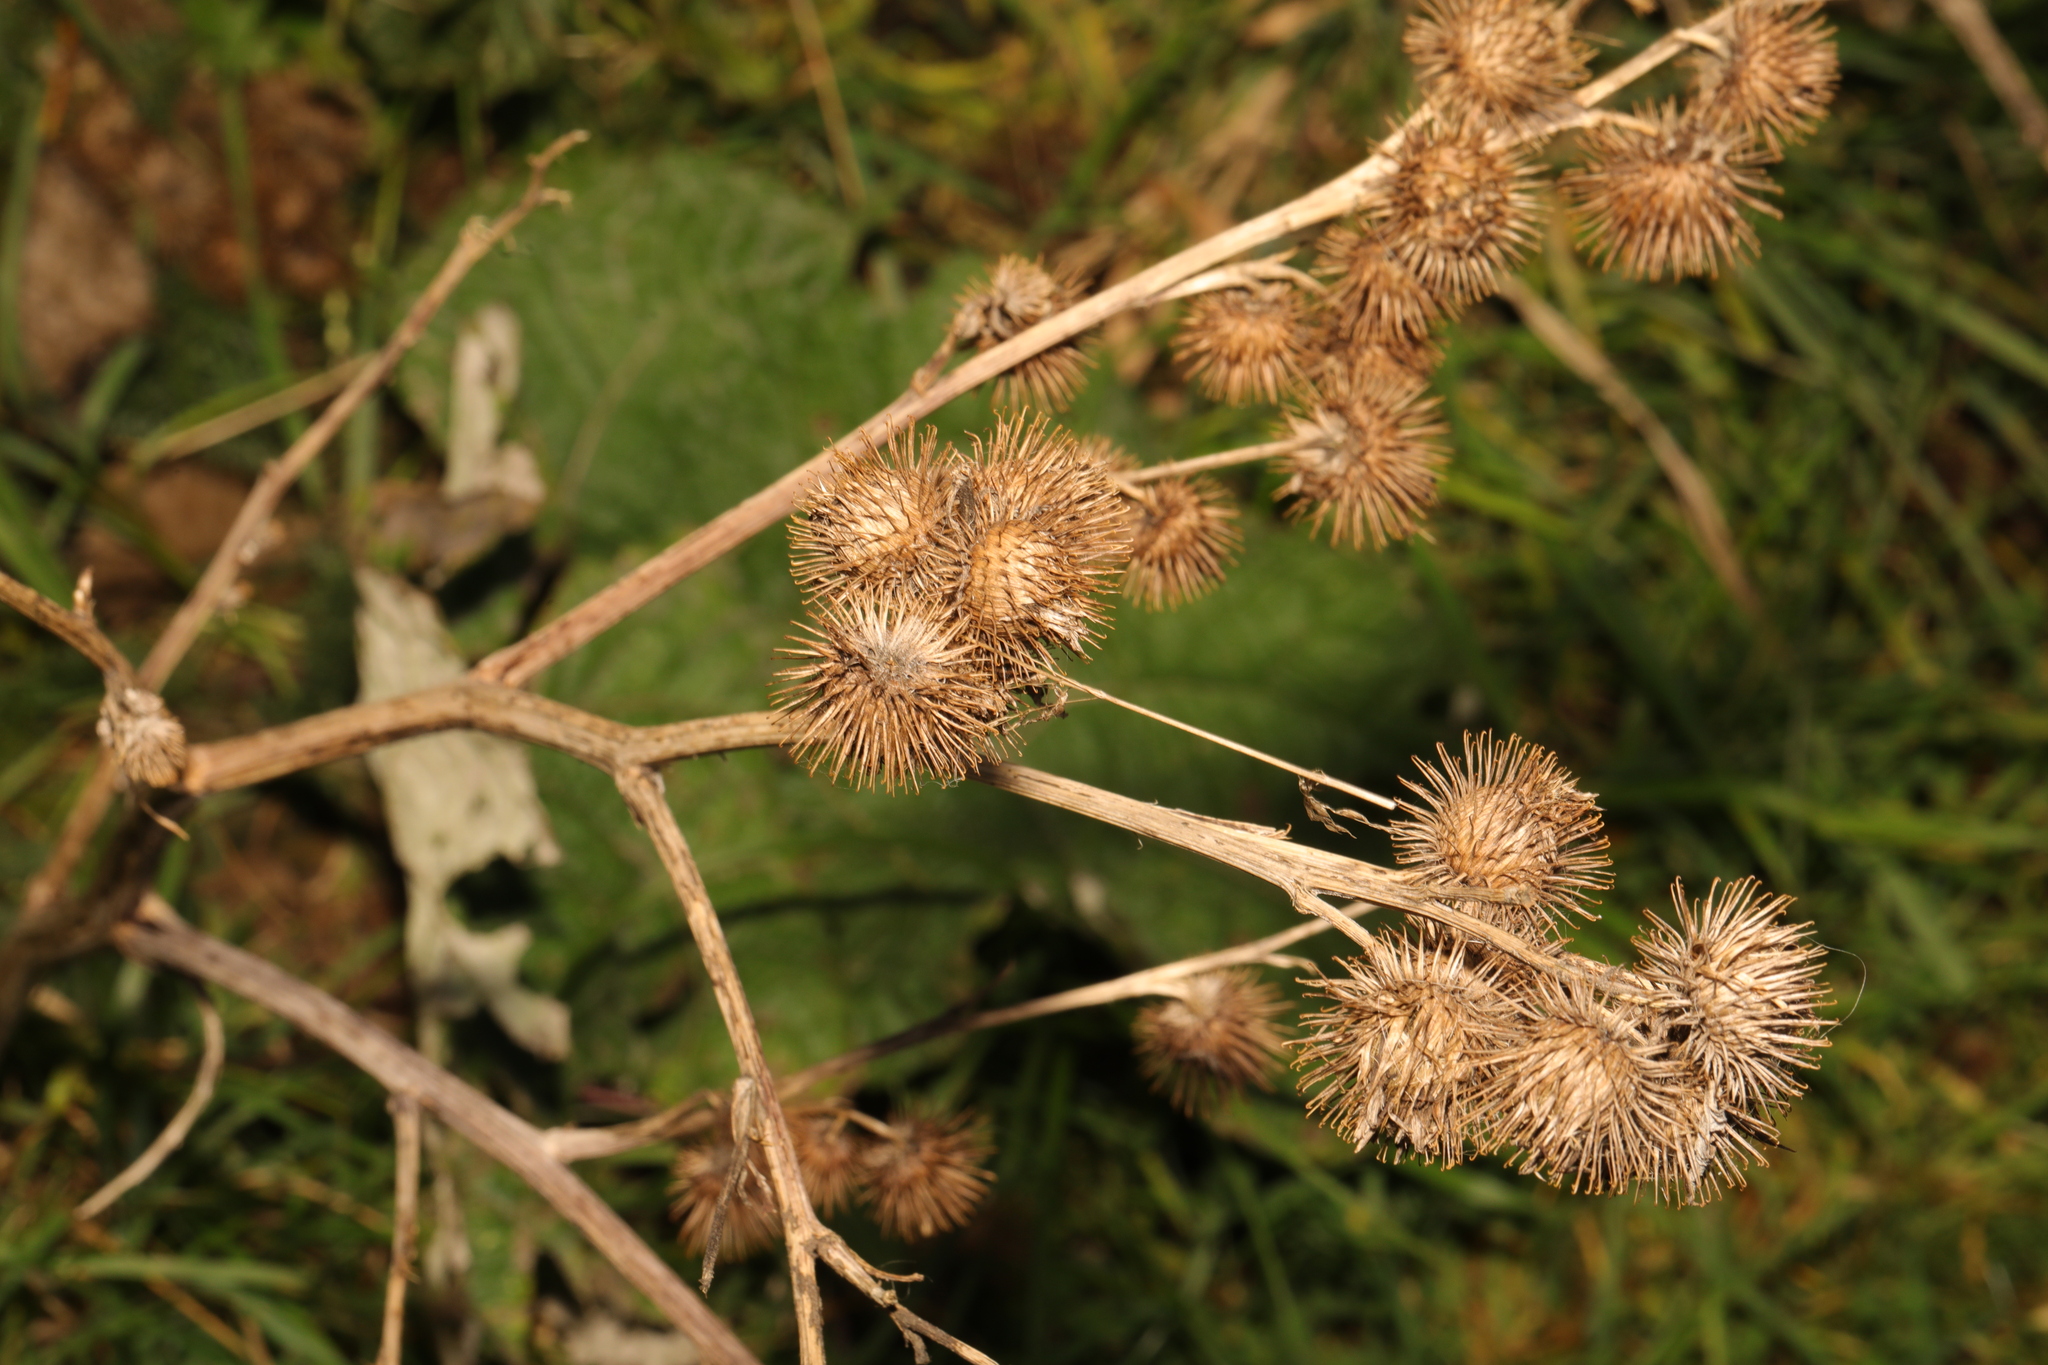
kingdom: Plantae
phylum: Tracheophyta
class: Magnoliopsida
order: Asterales
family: Asteraceae
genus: Arctium
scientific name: Arctium minus
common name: Lesser burdock
